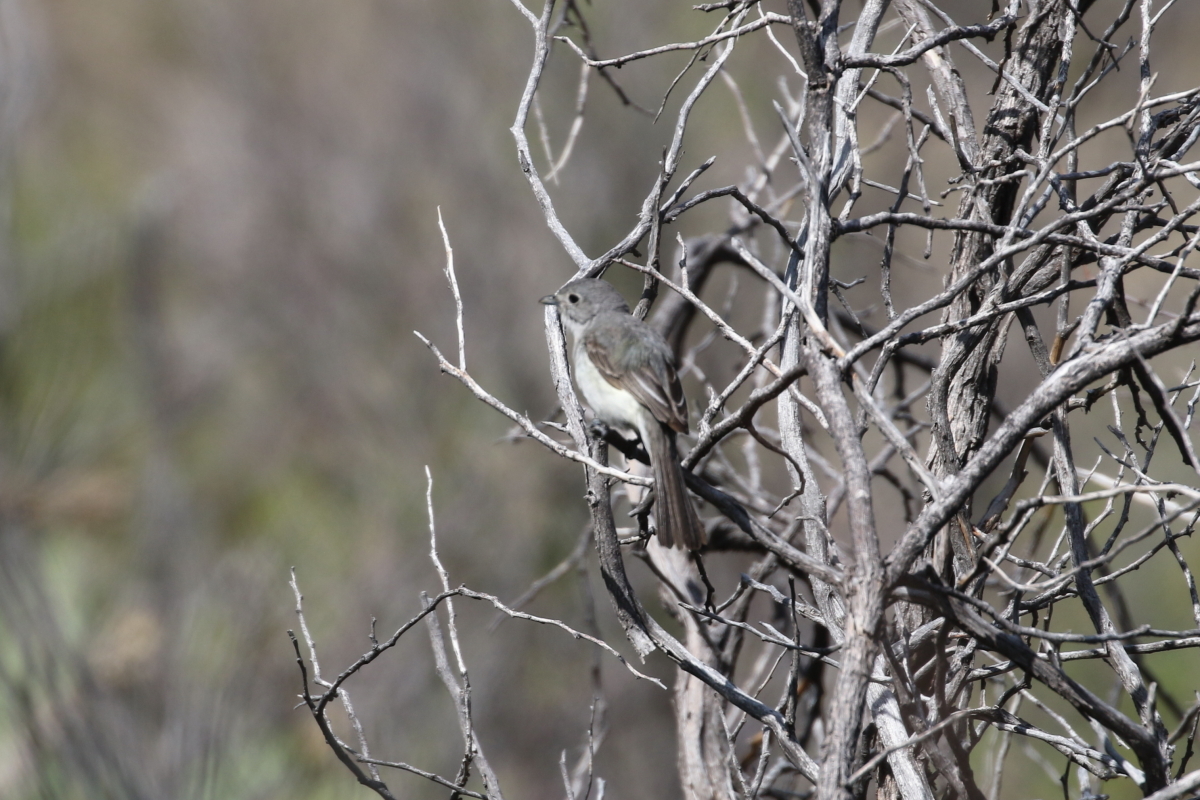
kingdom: Animalia
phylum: Chordata
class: Aves
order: Passeriformes
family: Vireonidae
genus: Vireo
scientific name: Vireo vicinior
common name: Gray vireo
